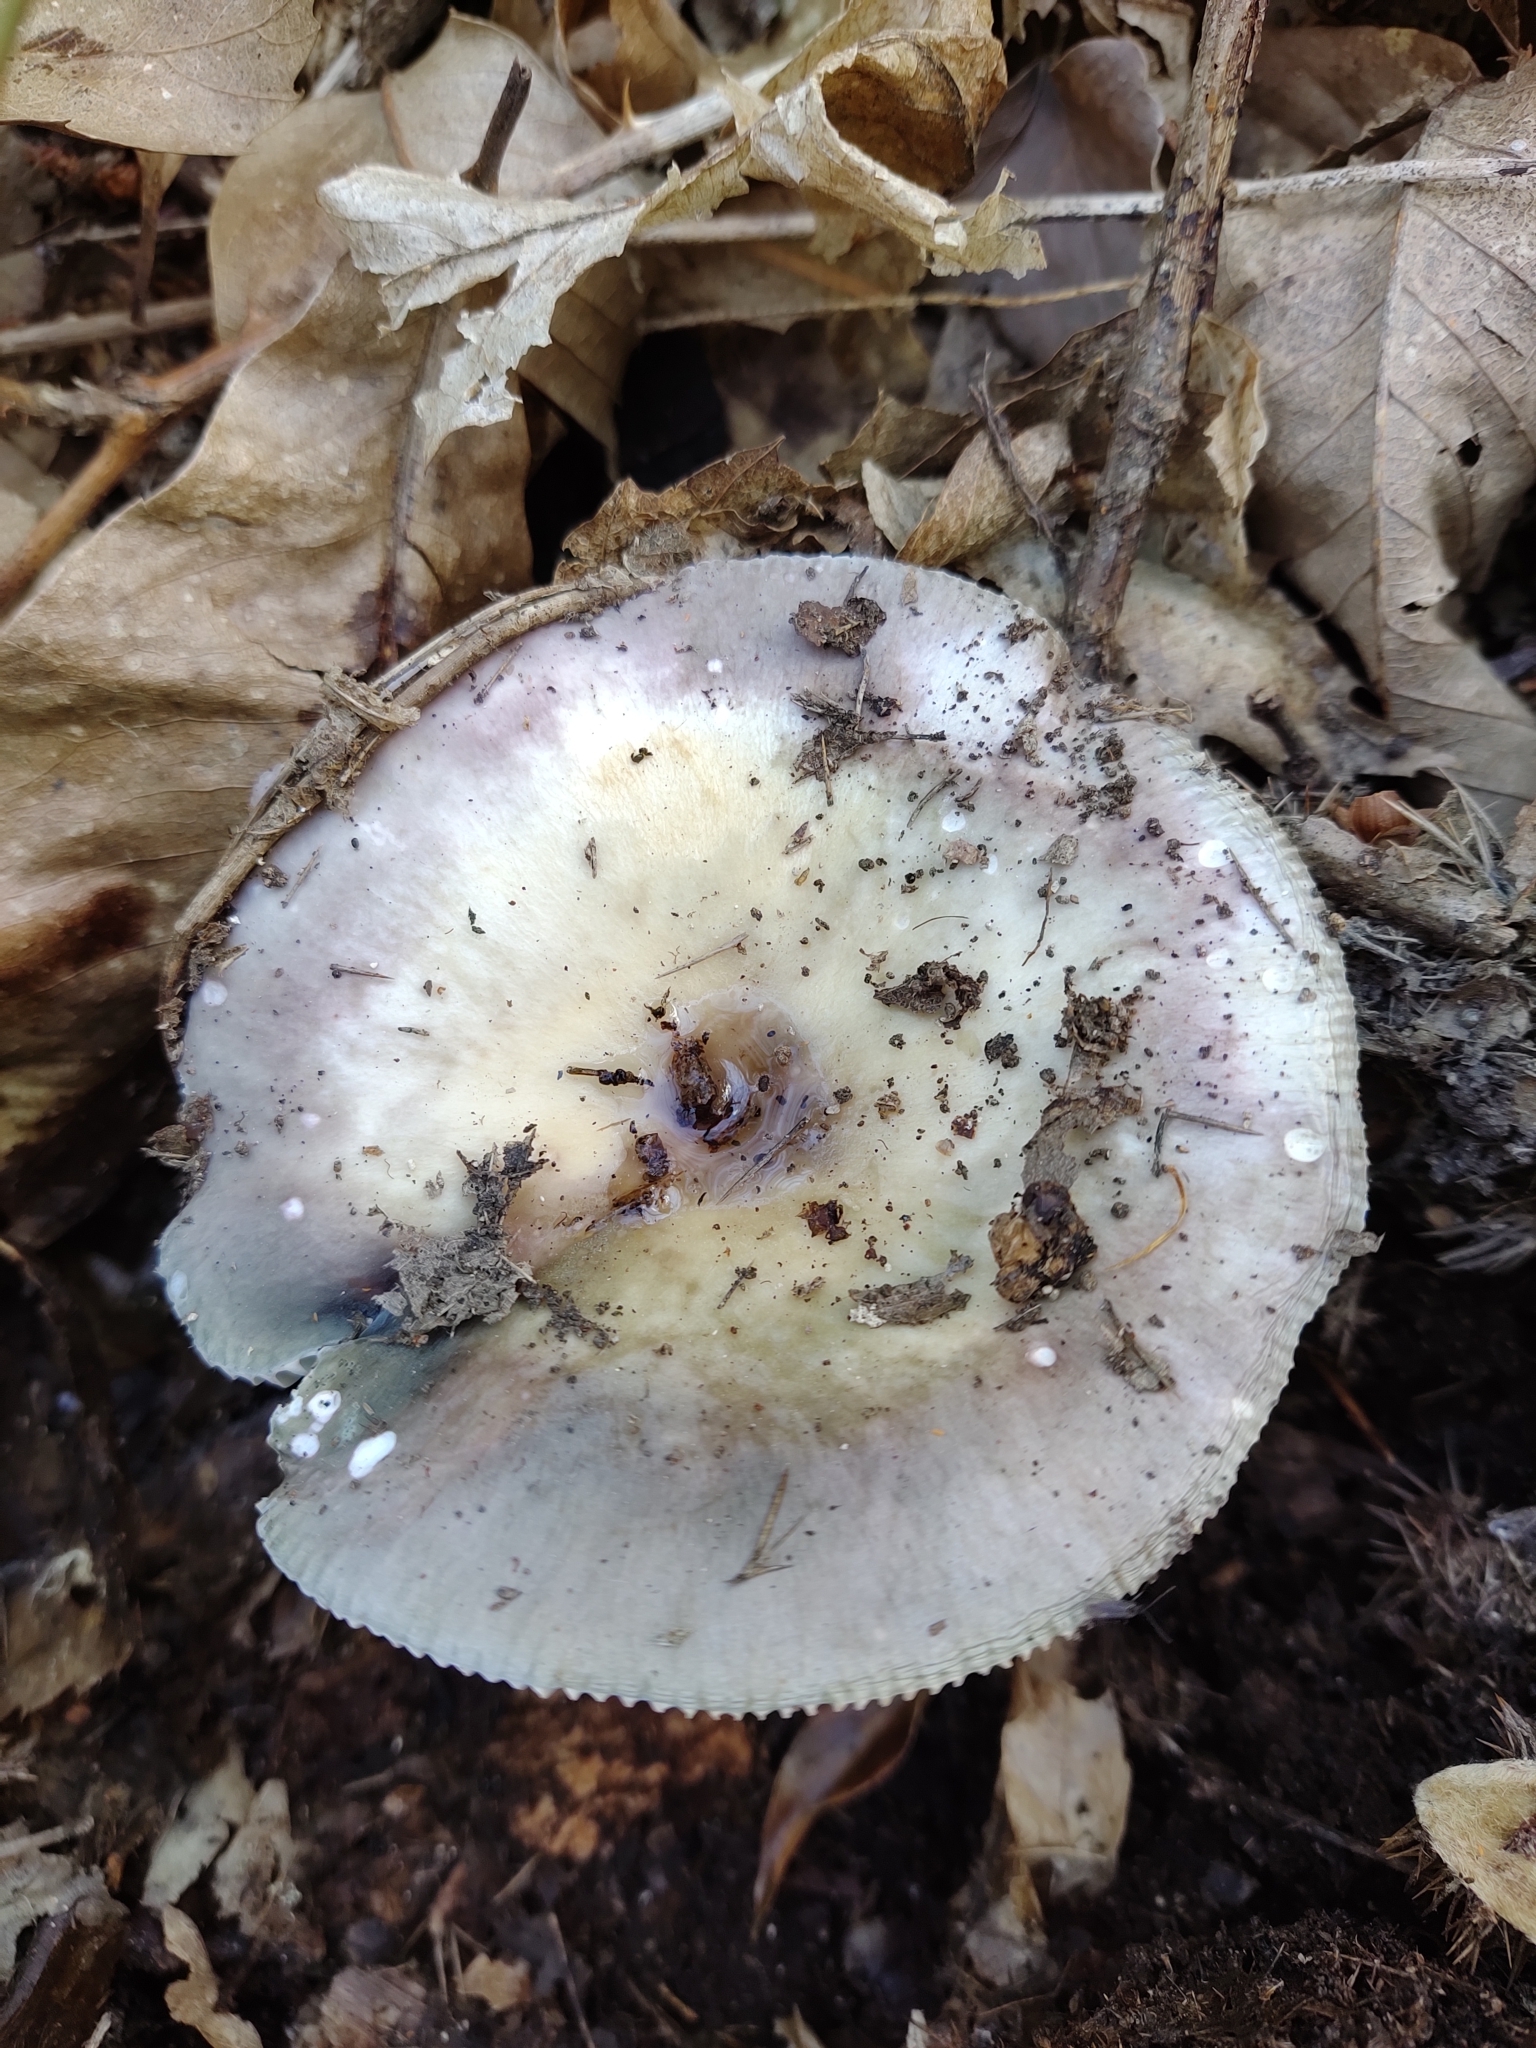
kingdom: Fungi
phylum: Basidiomycota
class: Agaricomycetes
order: Russulales
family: Russulaceae
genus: Russula
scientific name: Russula cyanoxantha
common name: Charcoal burner
